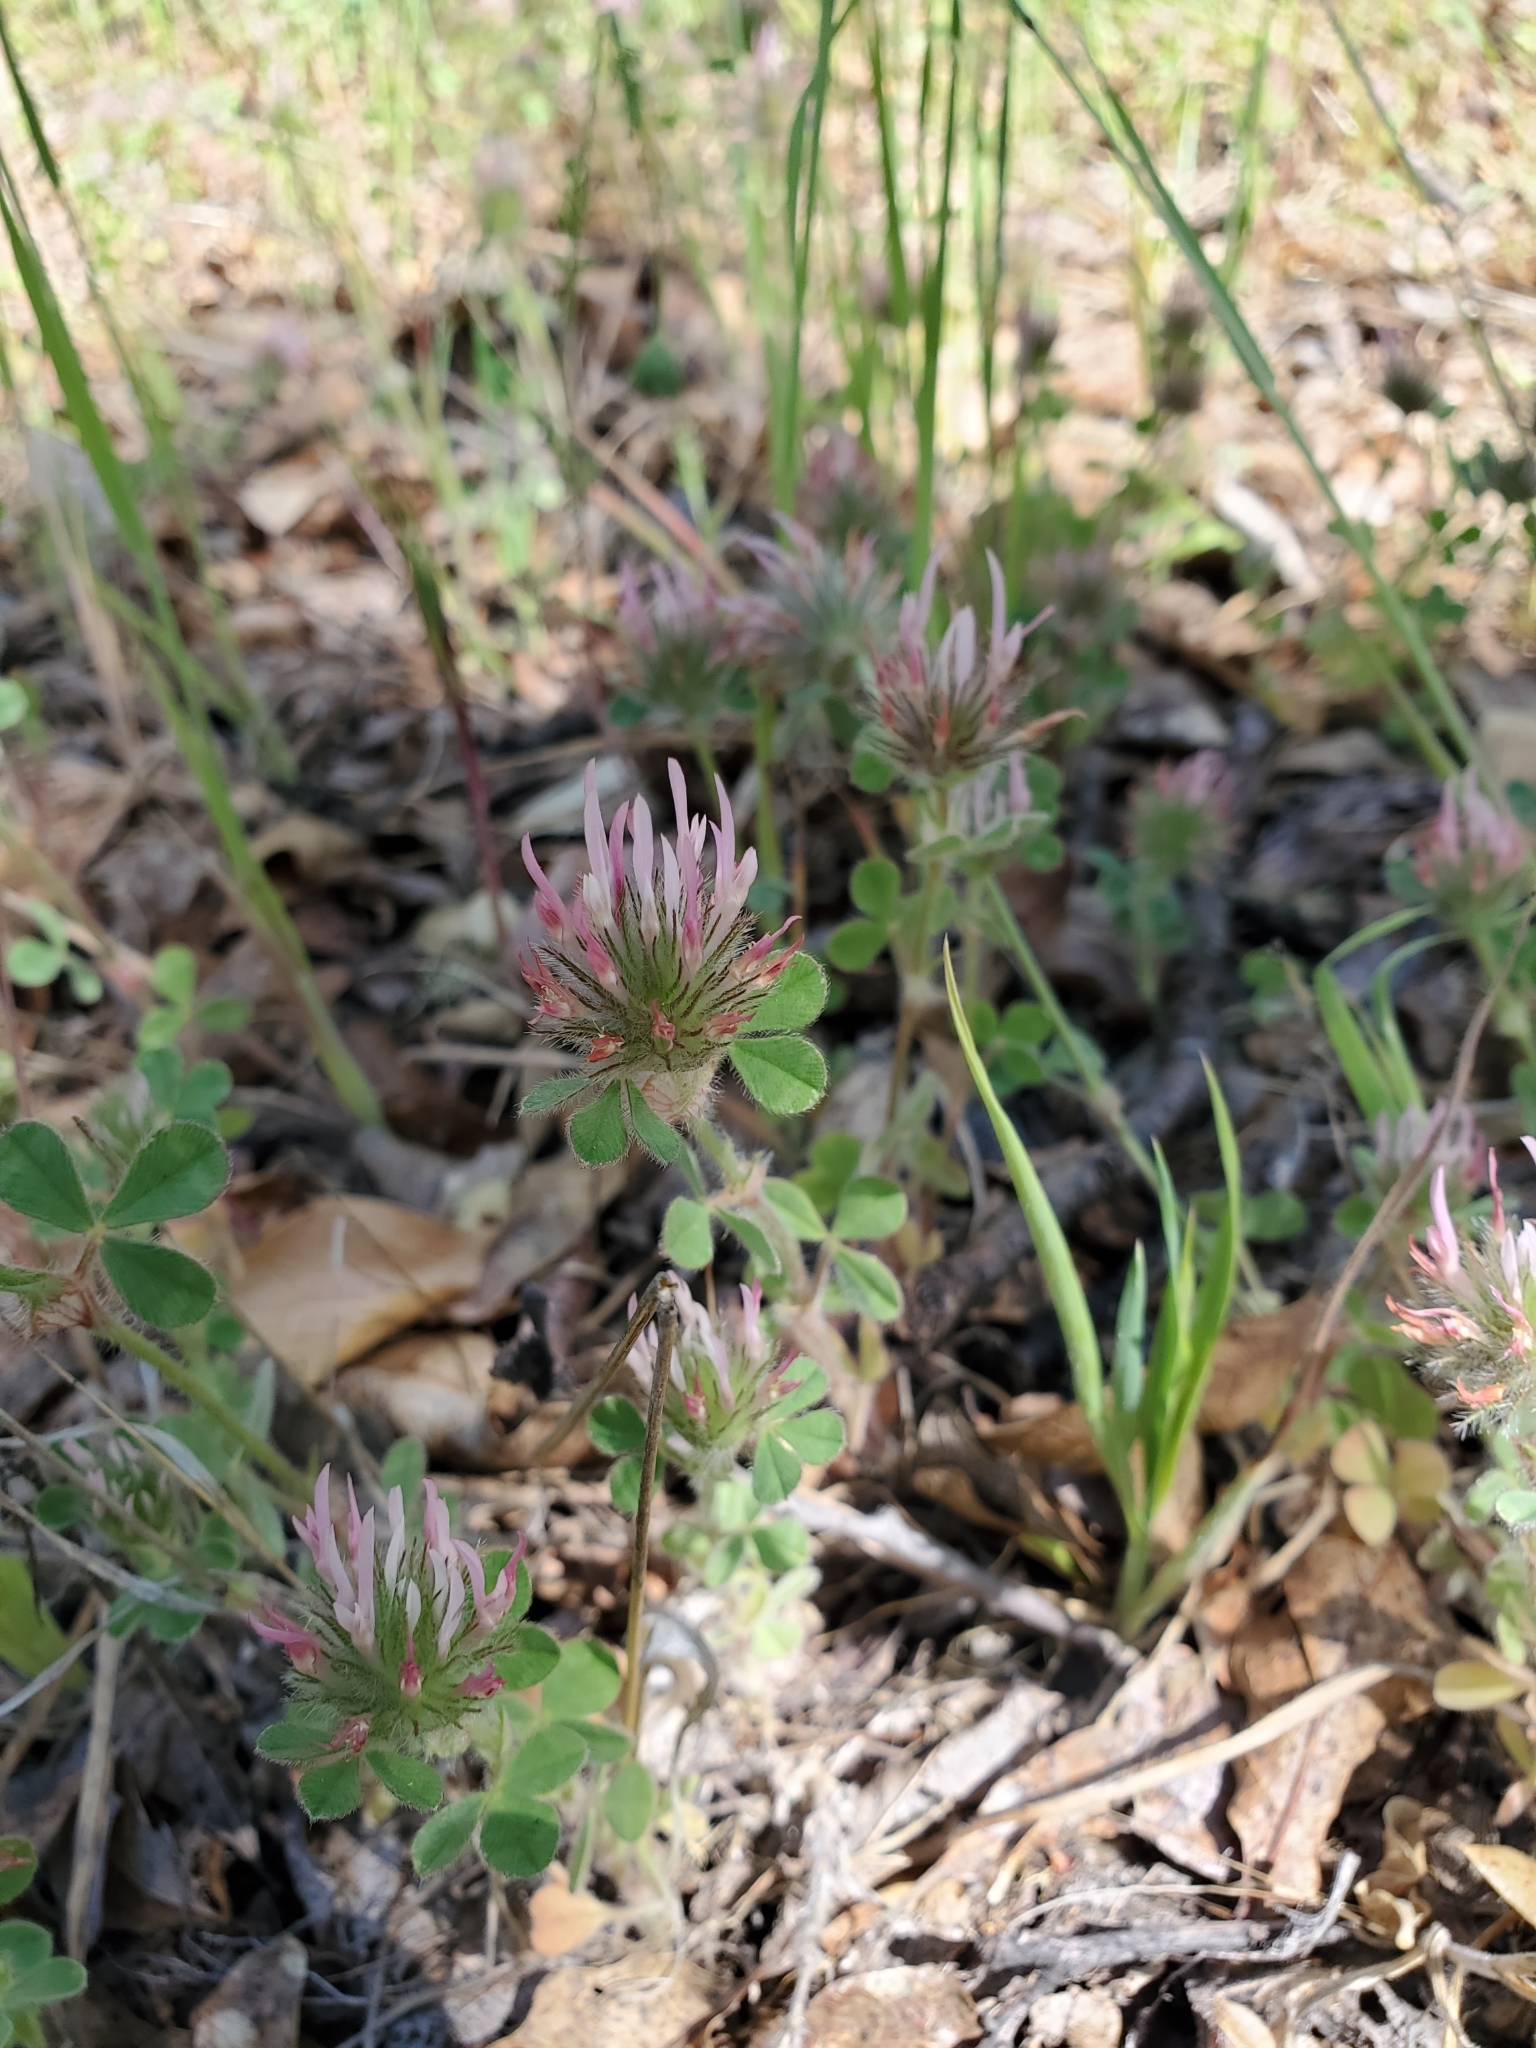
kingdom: Plantae
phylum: Tracheophyta
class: Magnoliopsida
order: Fabales
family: Fabaceae
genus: Trifolium
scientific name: Trifolium hirtum
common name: Rose clover
